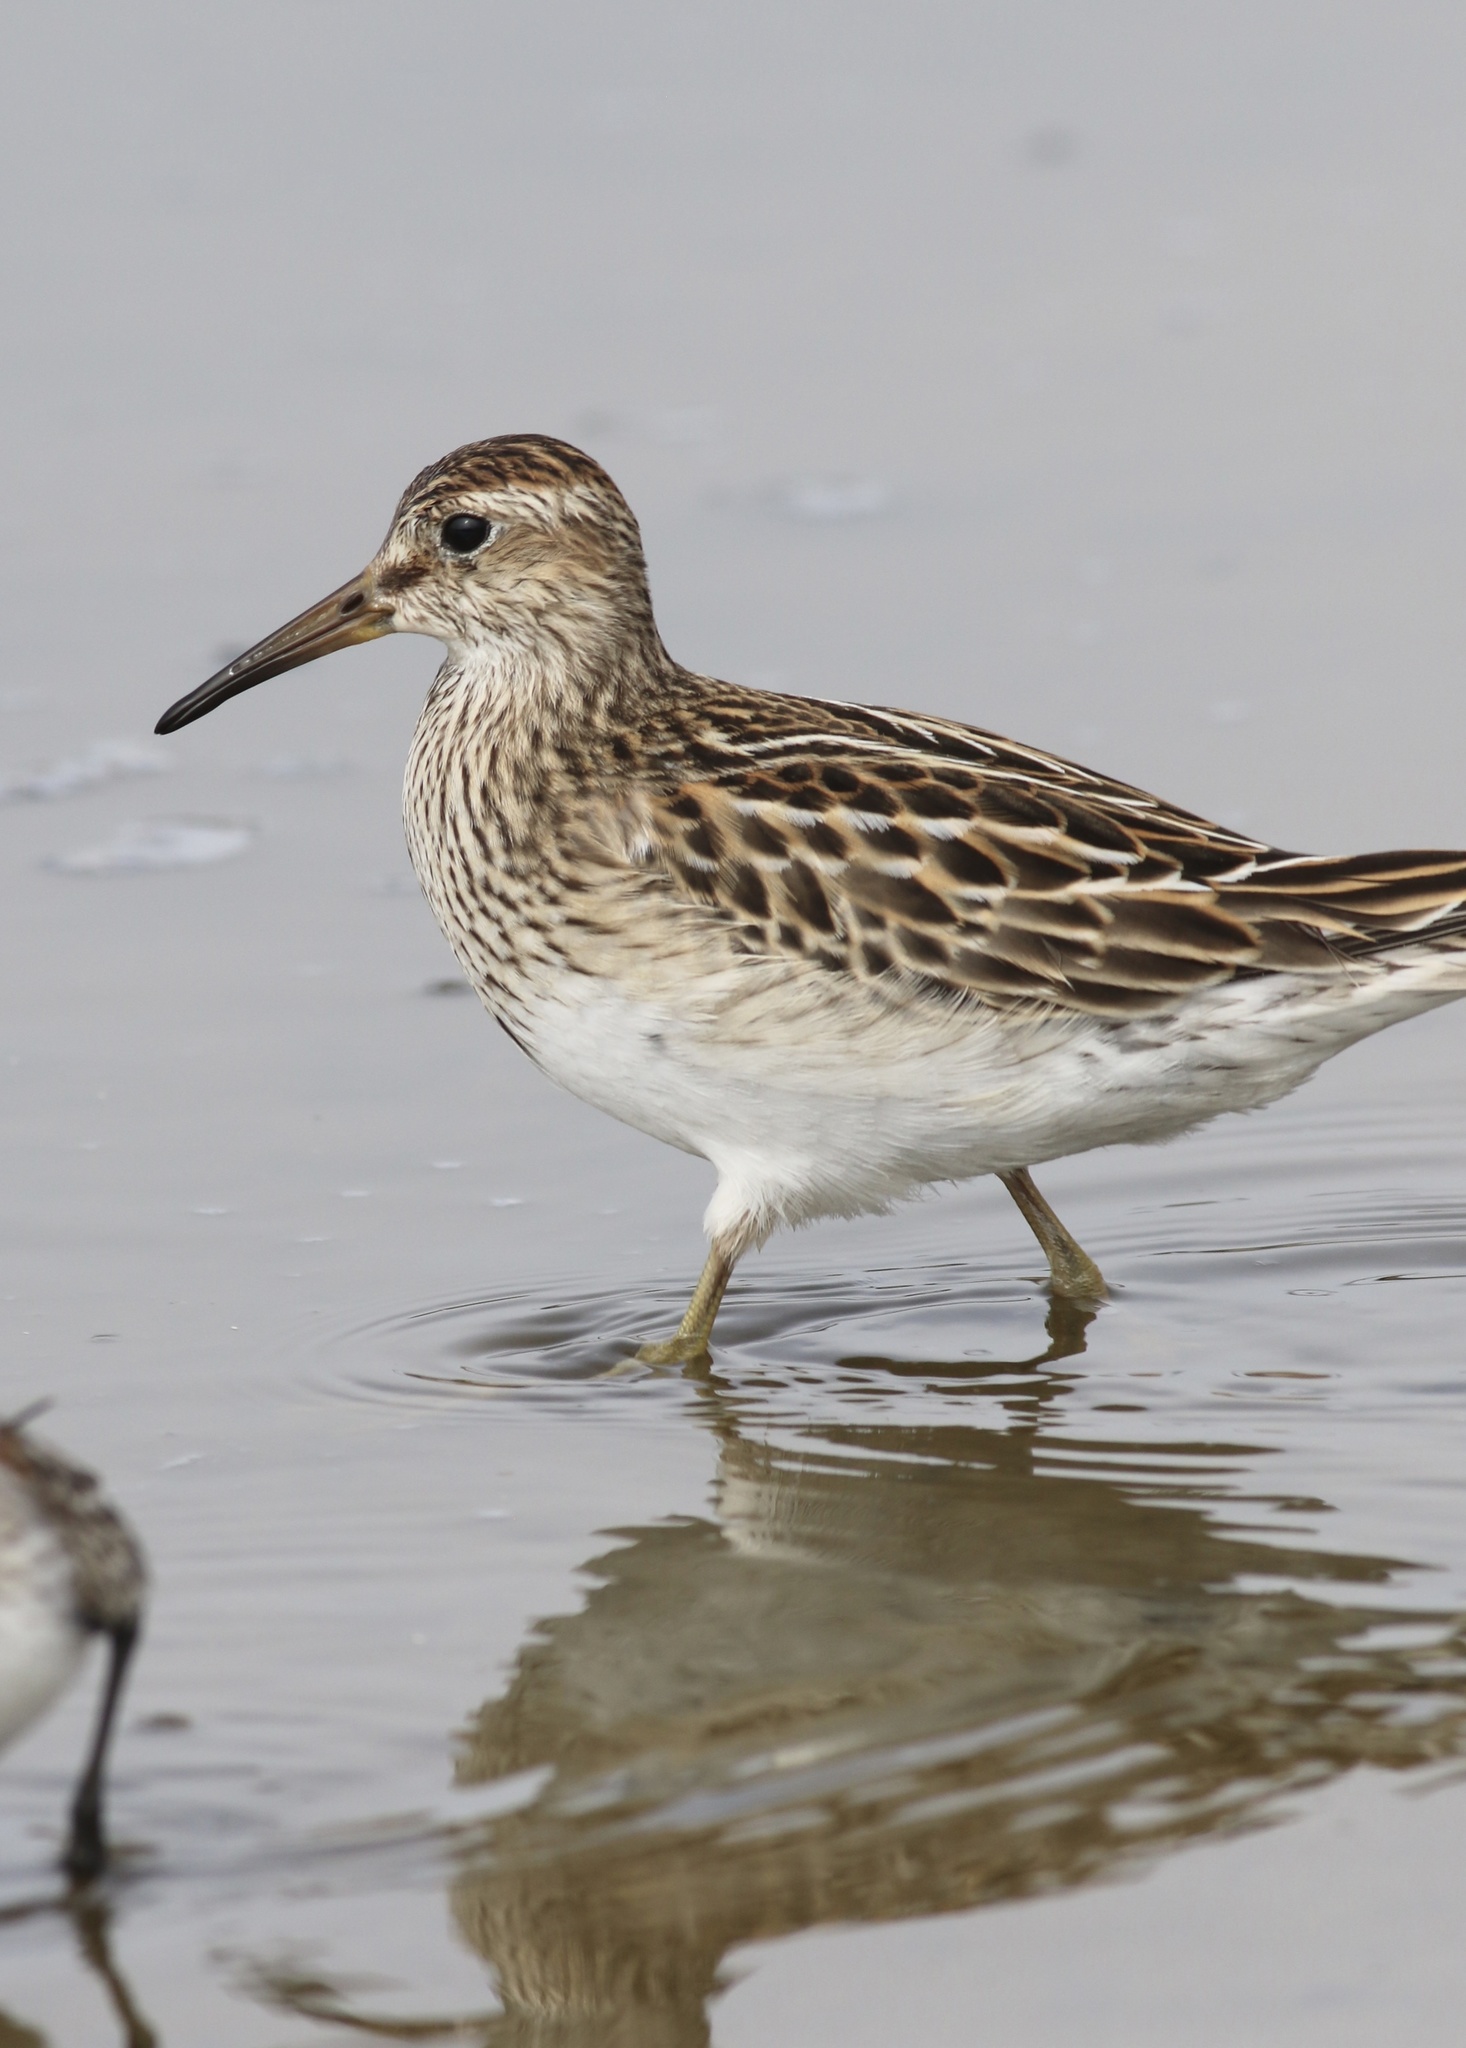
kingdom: Animalia
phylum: Chordata
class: Aves
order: Charadriiformes
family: Scolopacidae
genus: Calidris
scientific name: Calidris melanotos
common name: Pectoral sandpiper
